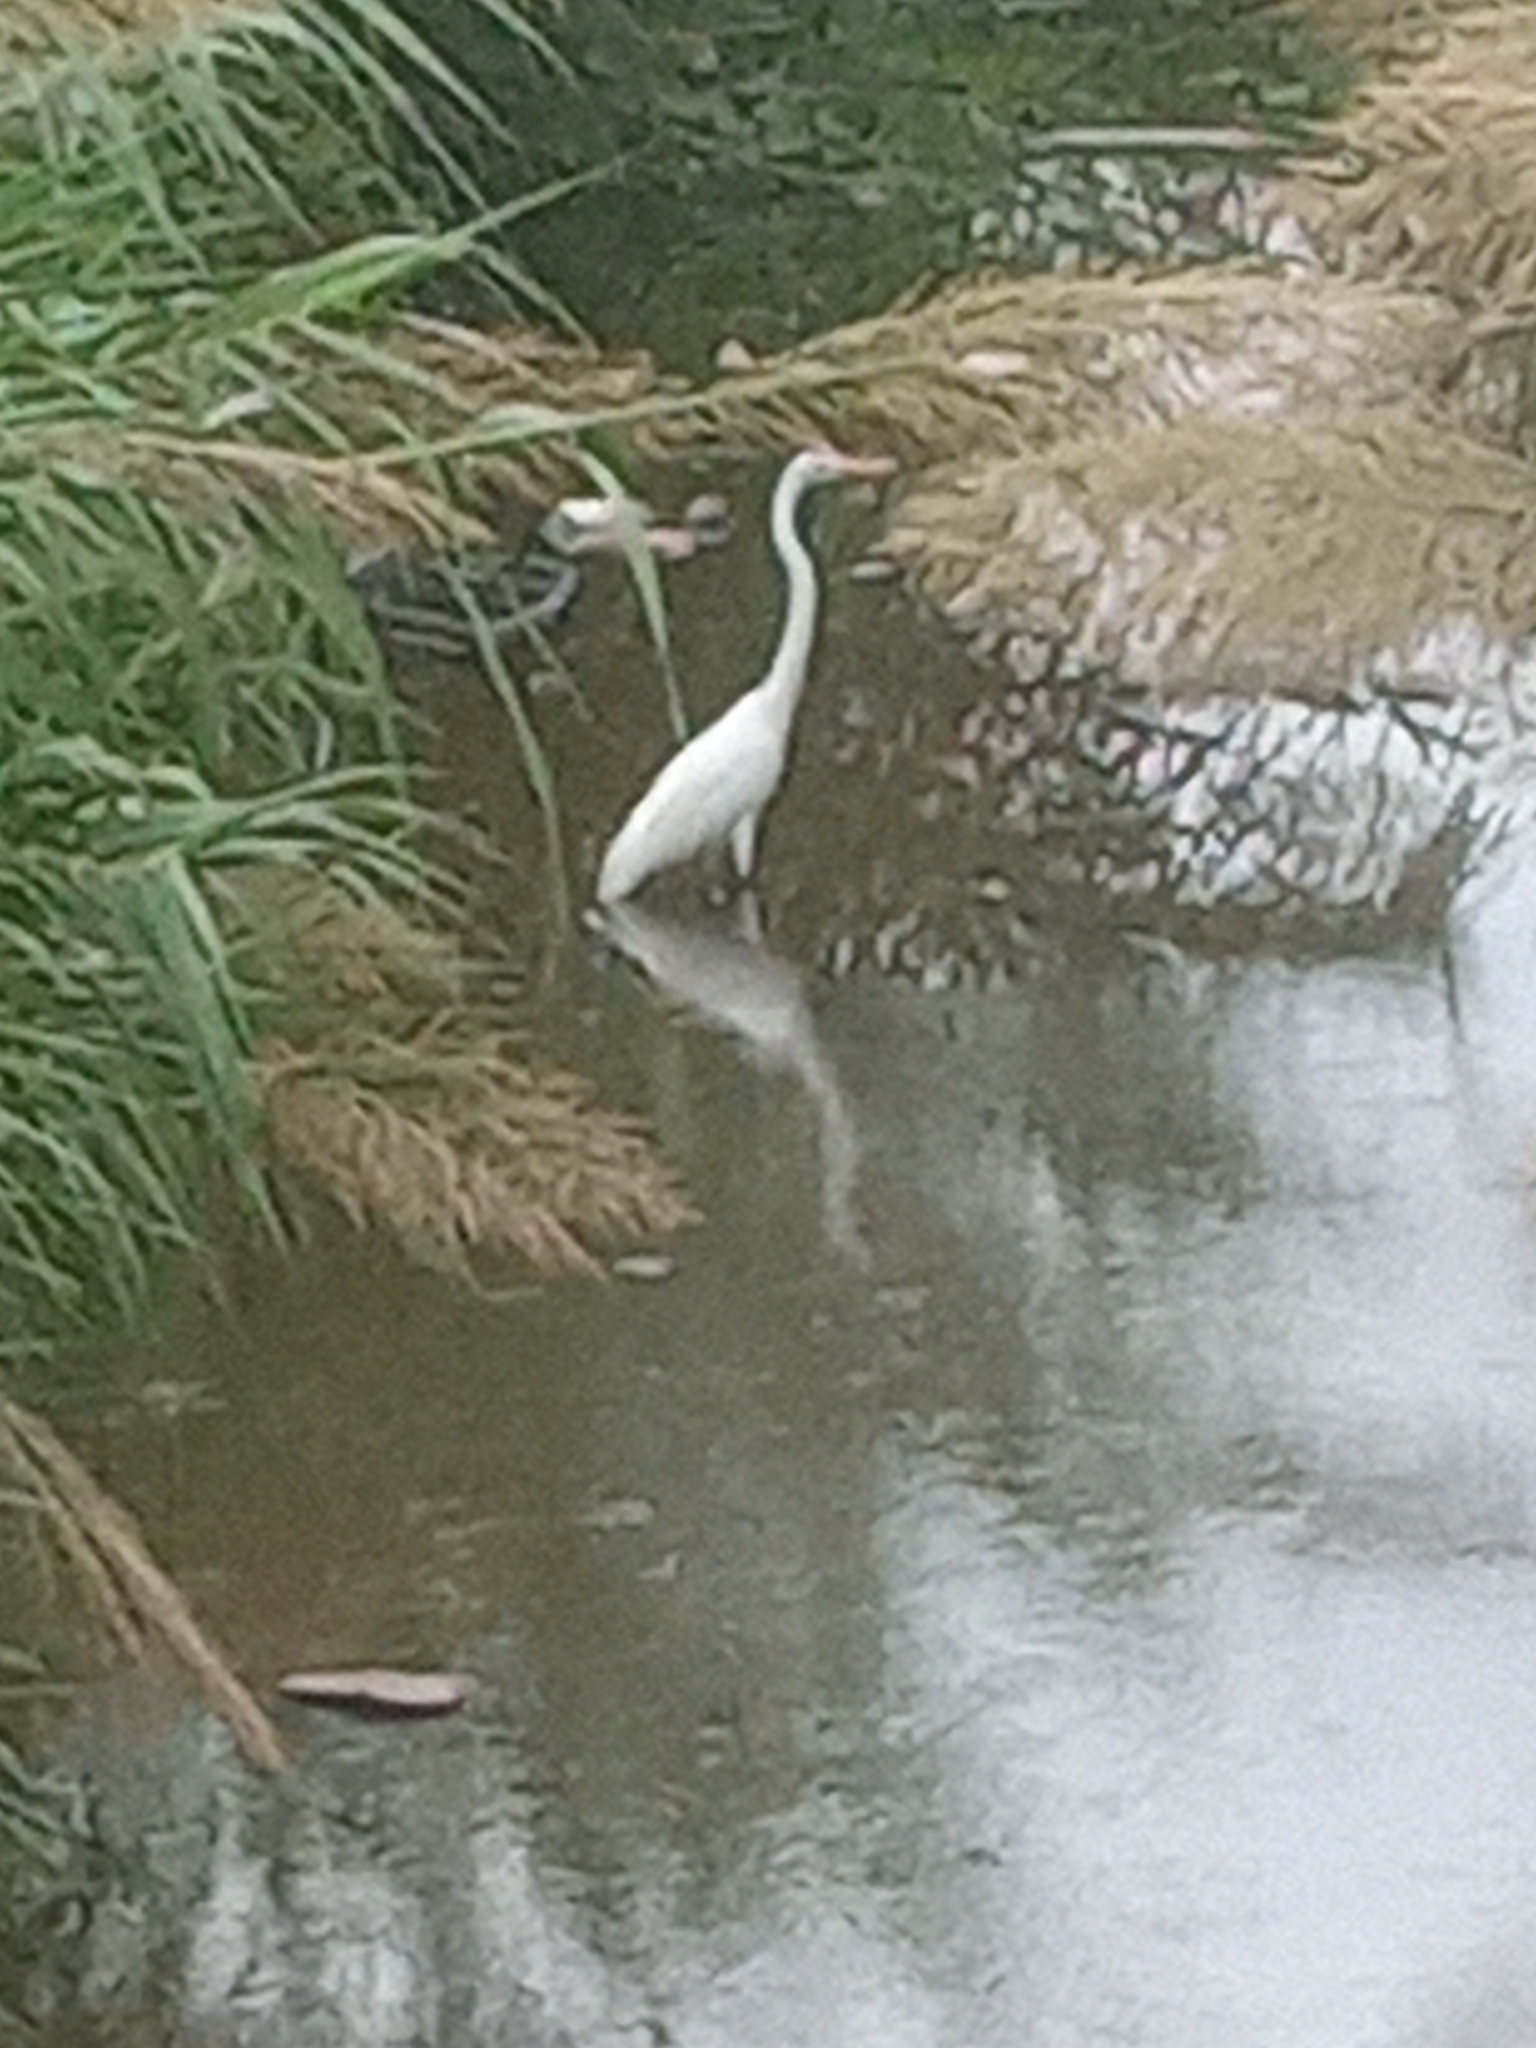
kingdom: Animalia
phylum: Chordata
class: Aves
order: Pelecaniformes
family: Ardeidae
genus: Ardea
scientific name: Ardea alba
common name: Great egret
